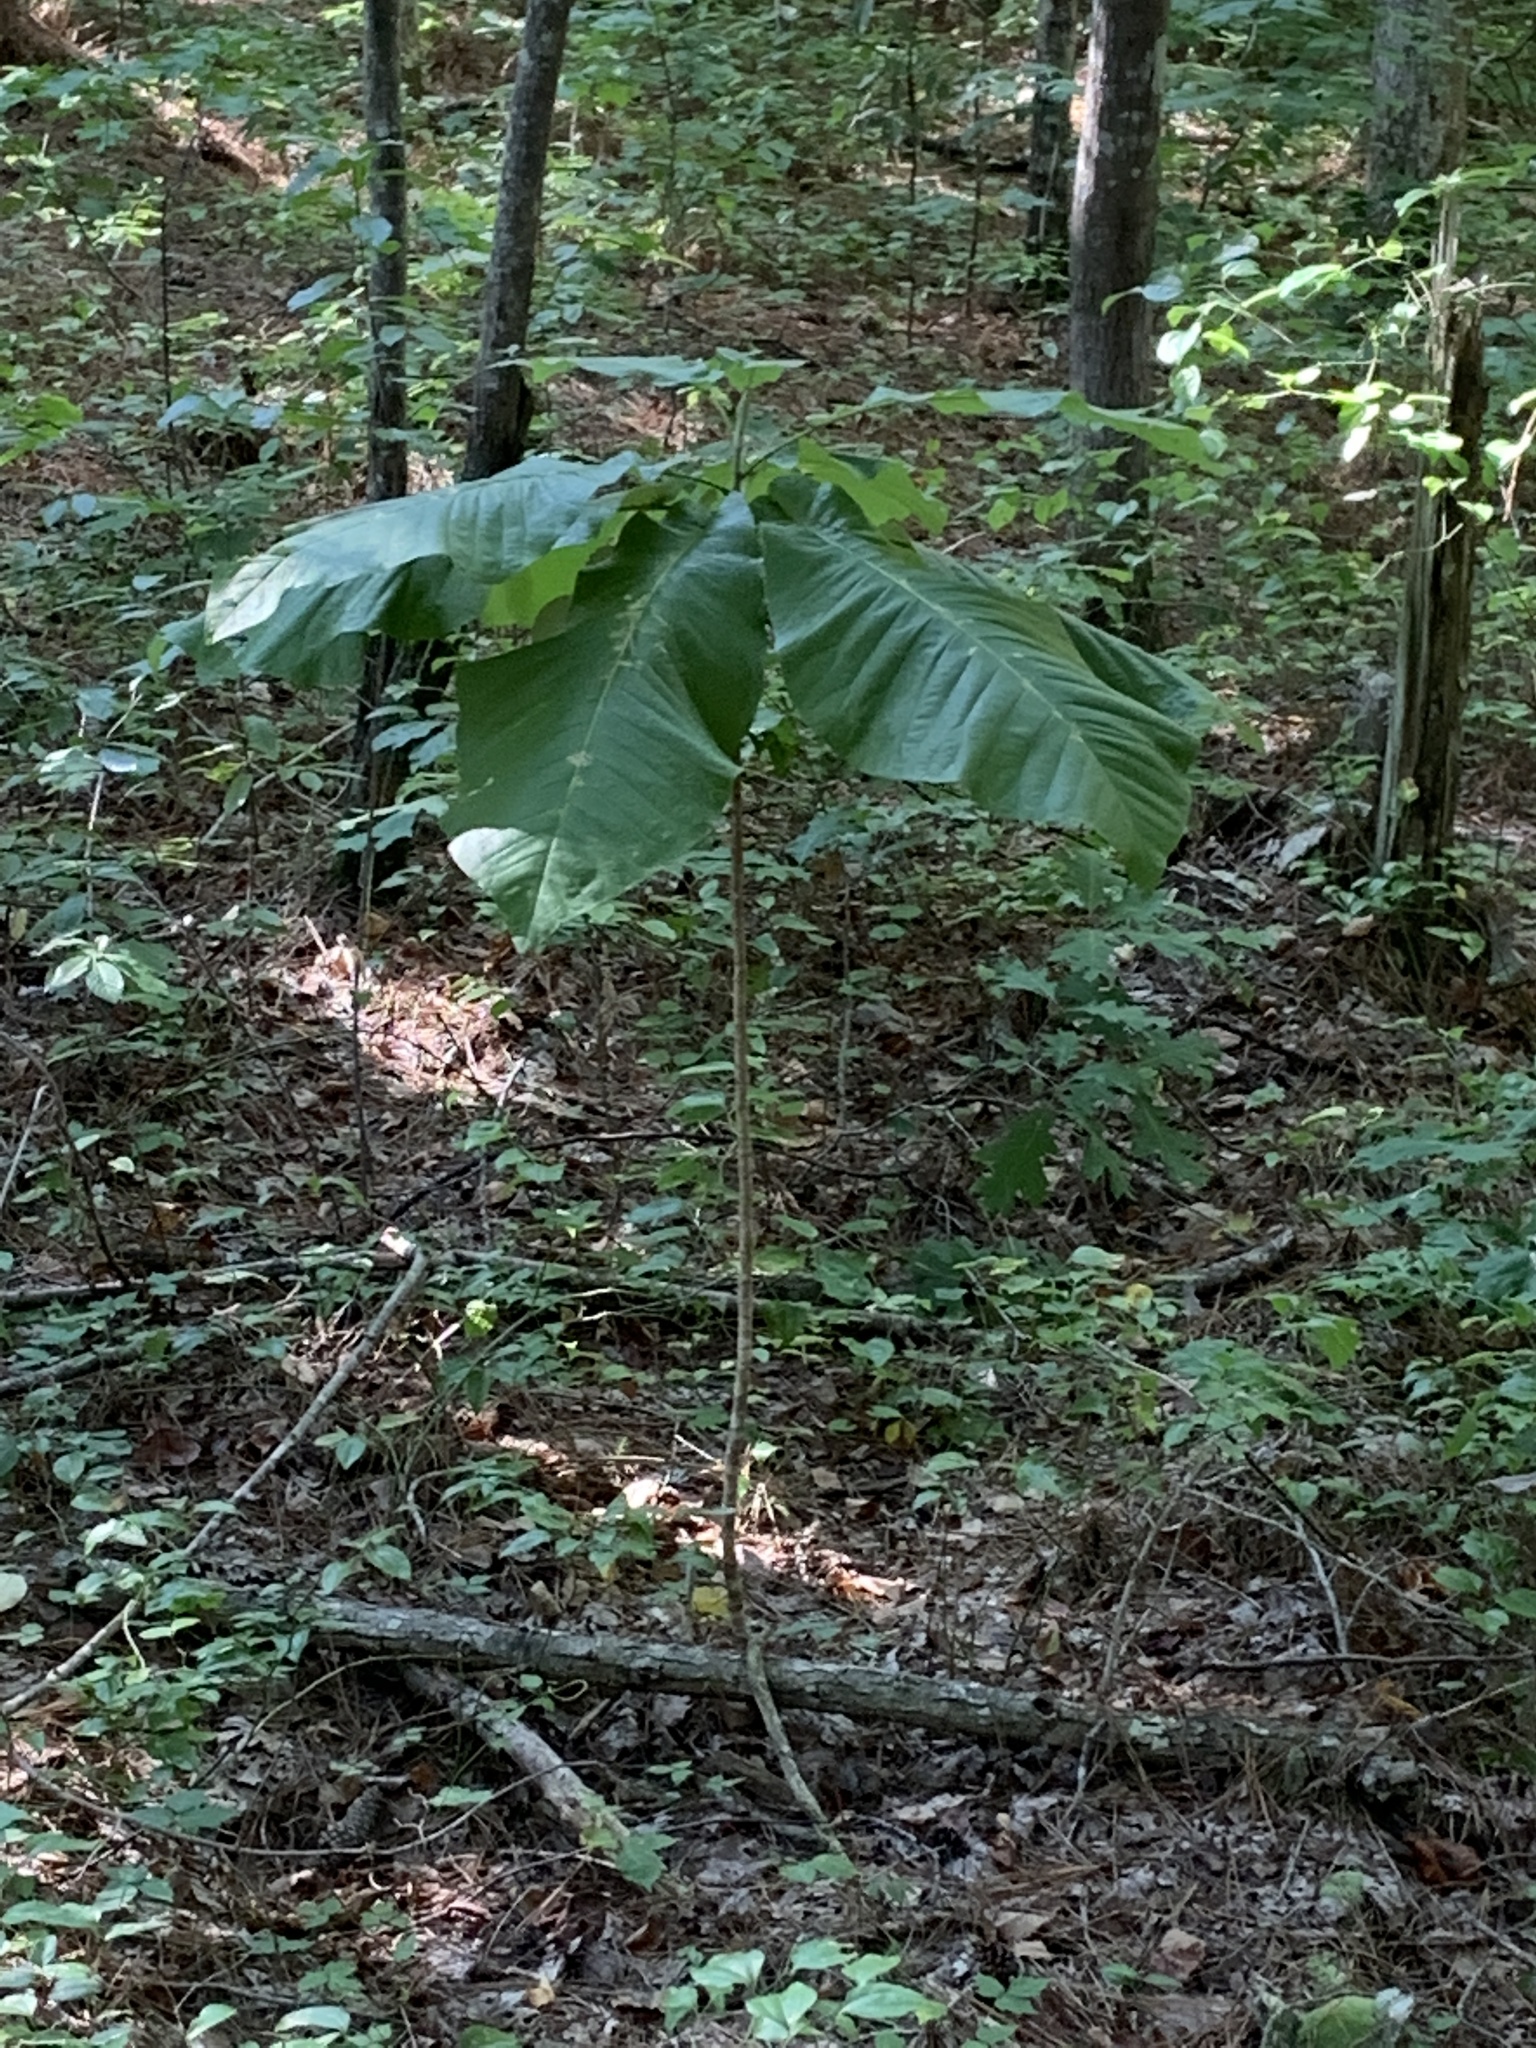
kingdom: Plantae
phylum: Tracheophyta
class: Magnoliopsida
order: Magnoliales
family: Magnoliaceae
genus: Magnolia
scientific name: Magnolia macrophylla
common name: Big-leaf magnolia
